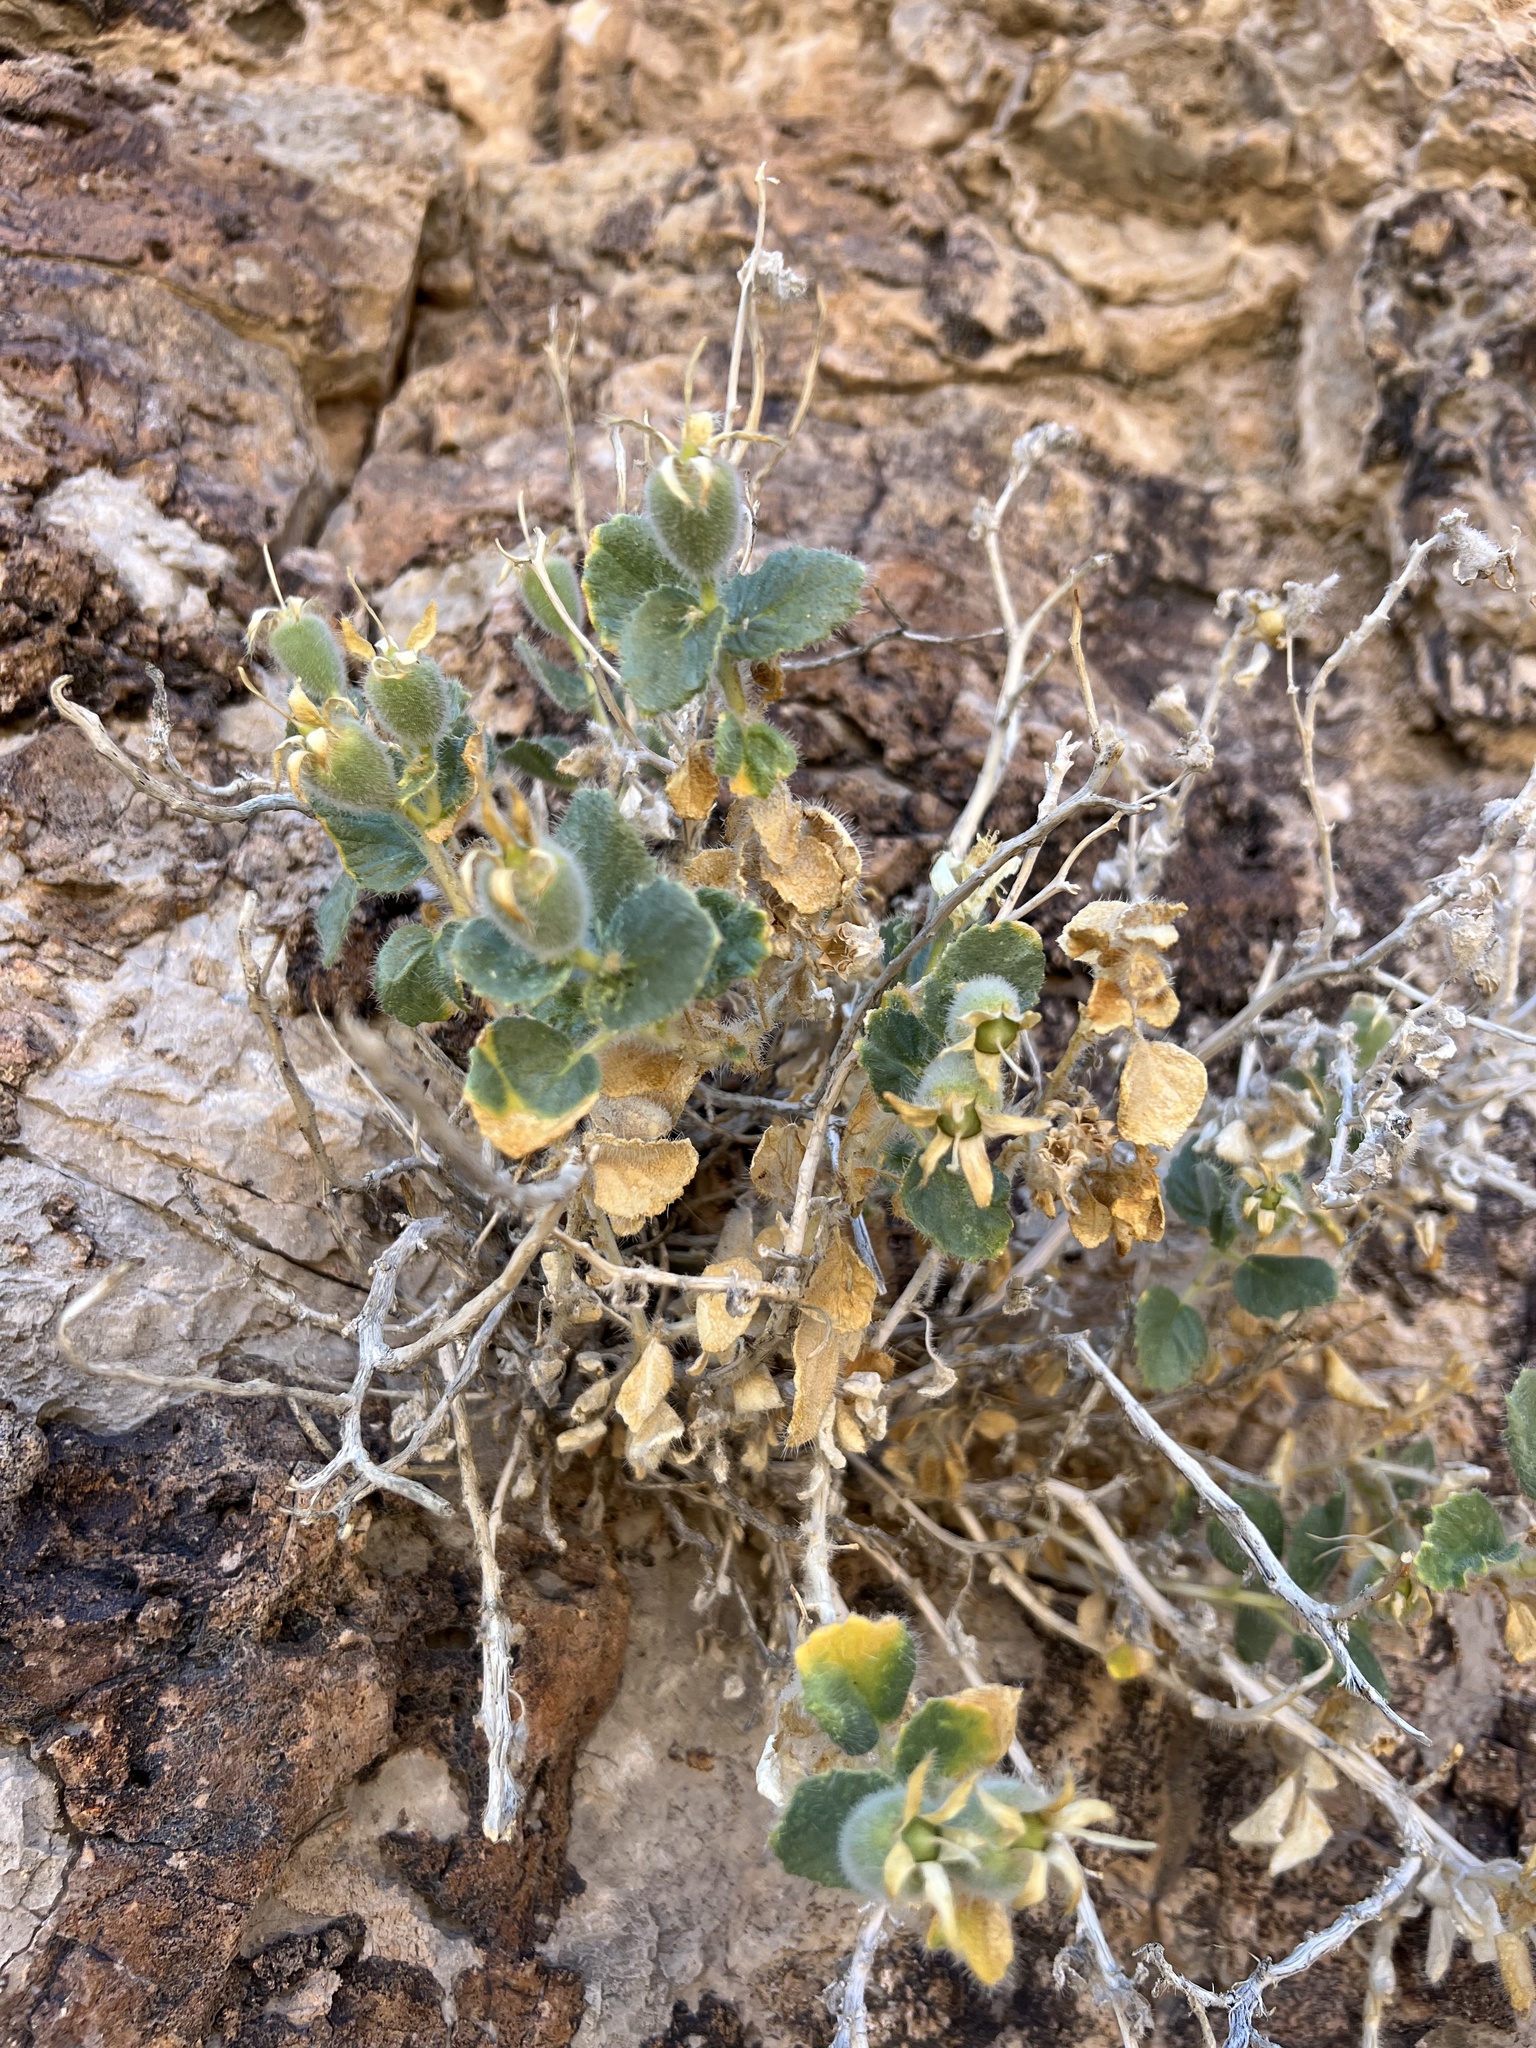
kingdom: Plantae
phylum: Tracheophyta
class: Magnoliopsida
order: Cornales
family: Loasaceae
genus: Eucnide
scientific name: Eucnide urens
